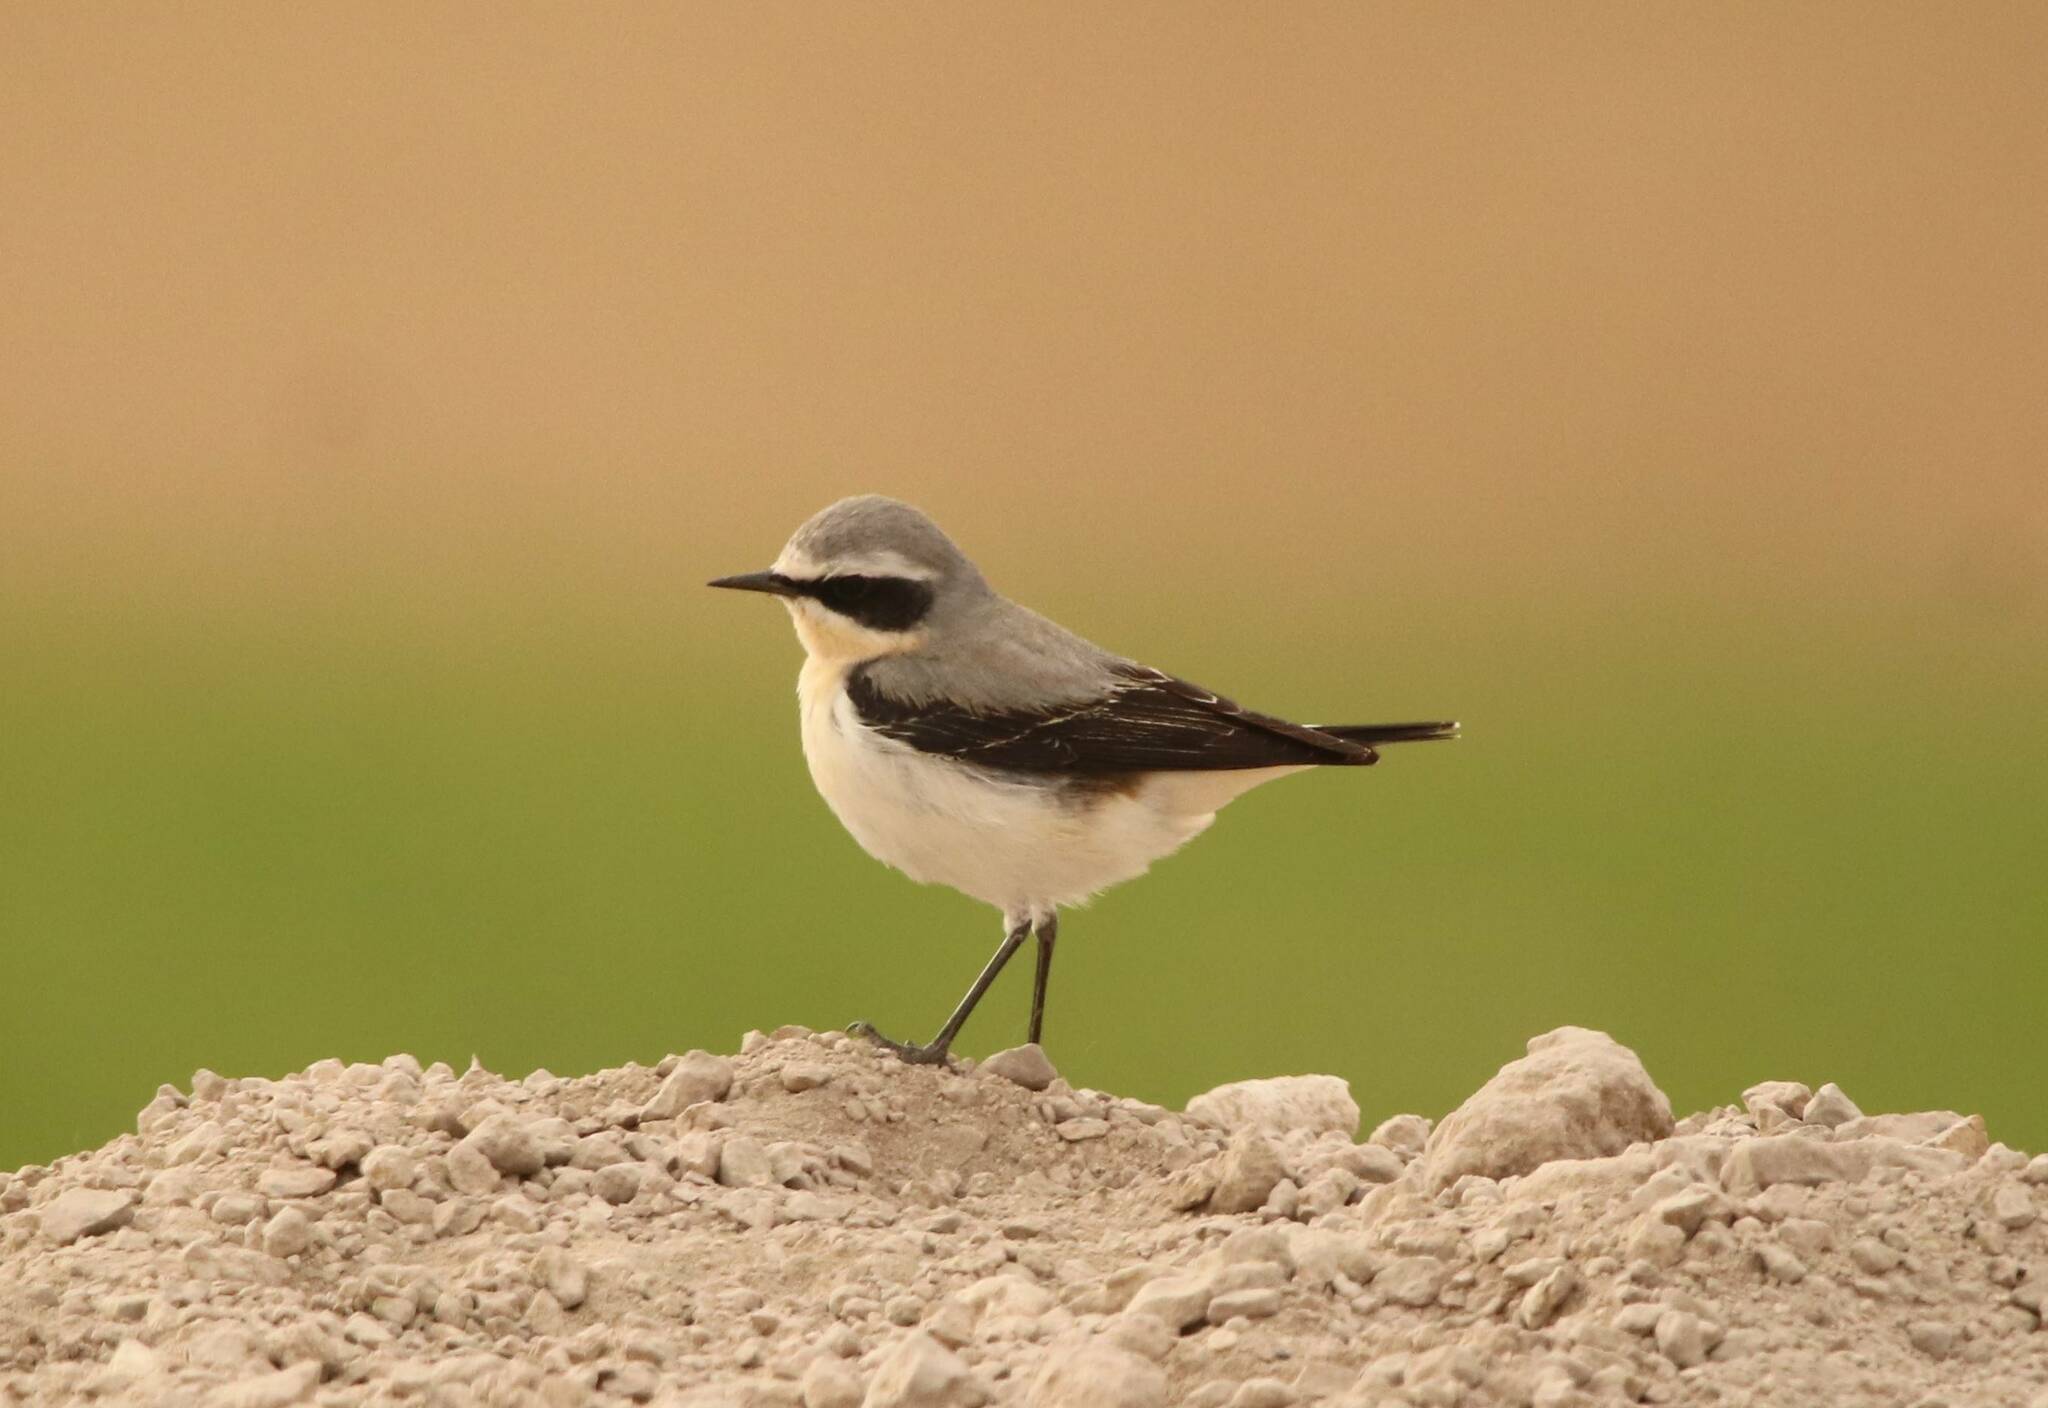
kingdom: Animalia
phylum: Chordata
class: Aves
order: Passeriformes
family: Muscicapidae
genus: Oenanthe
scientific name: Oenanthe oenanthe
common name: Northern wheatear
